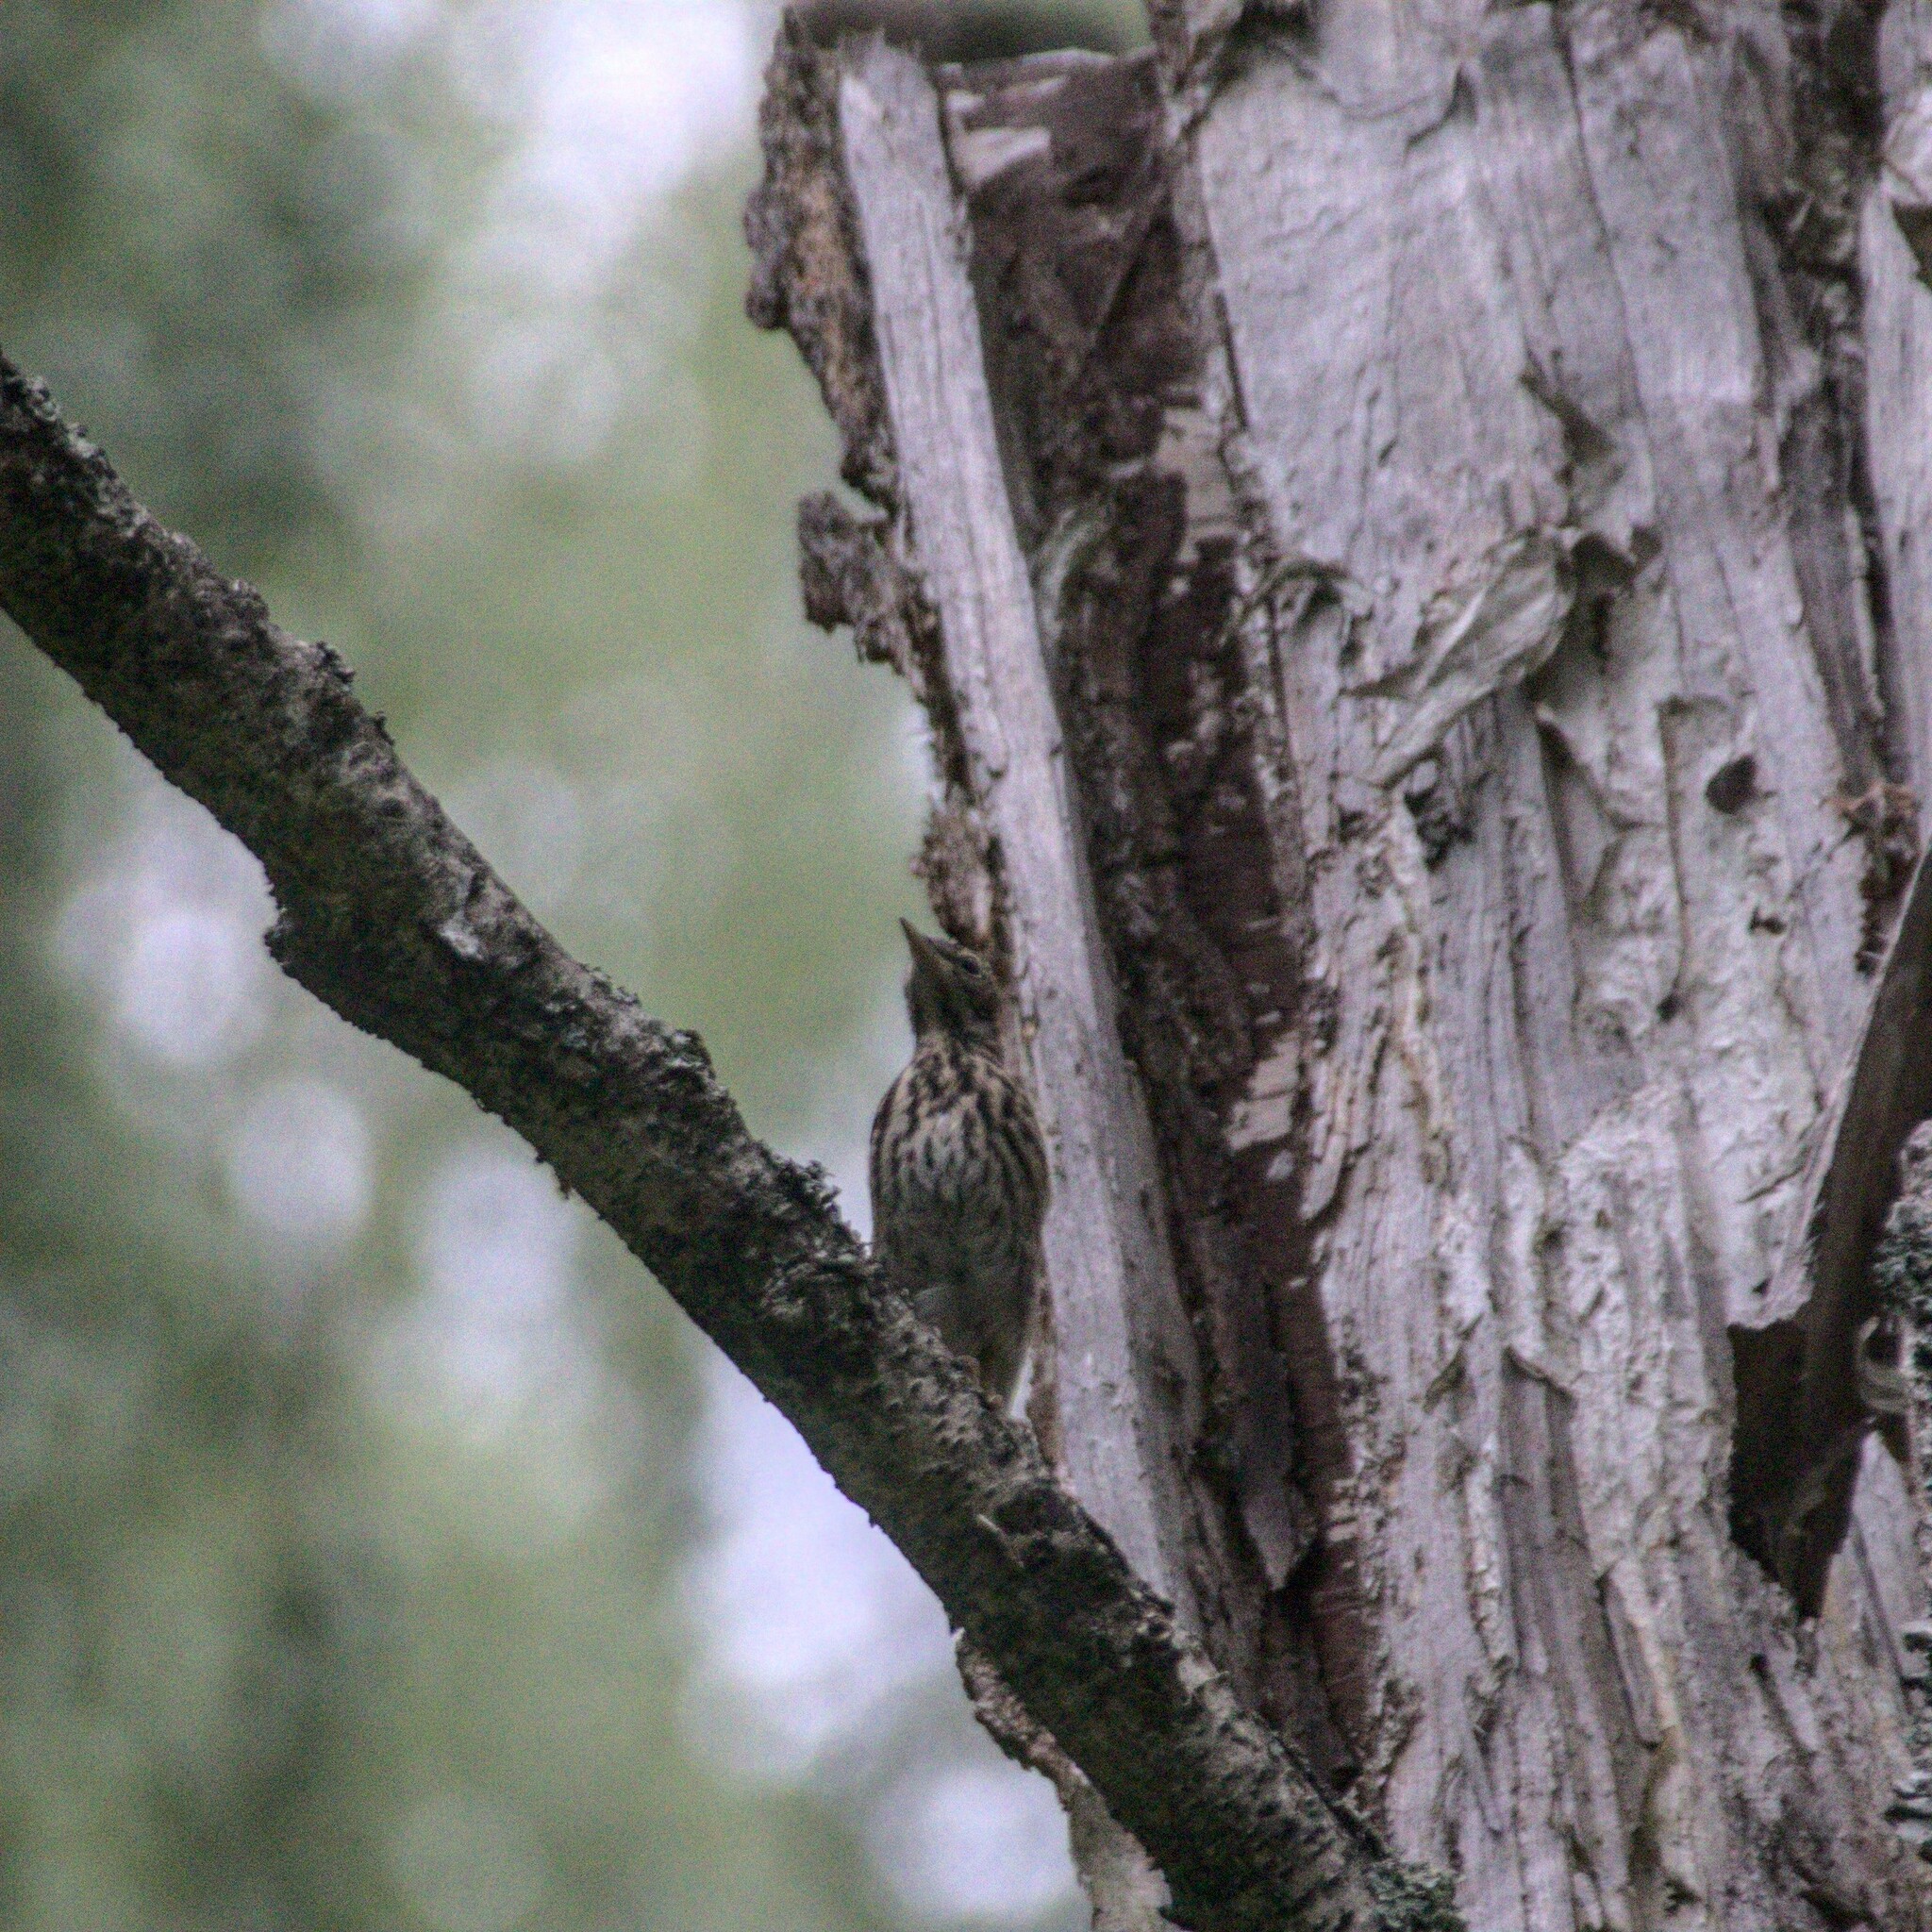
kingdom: Animalia
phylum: Chordata
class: Aves
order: Passeriformes
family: Motacillidae
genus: Anthus
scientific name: Anthus trivialis
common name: Tree pipit
